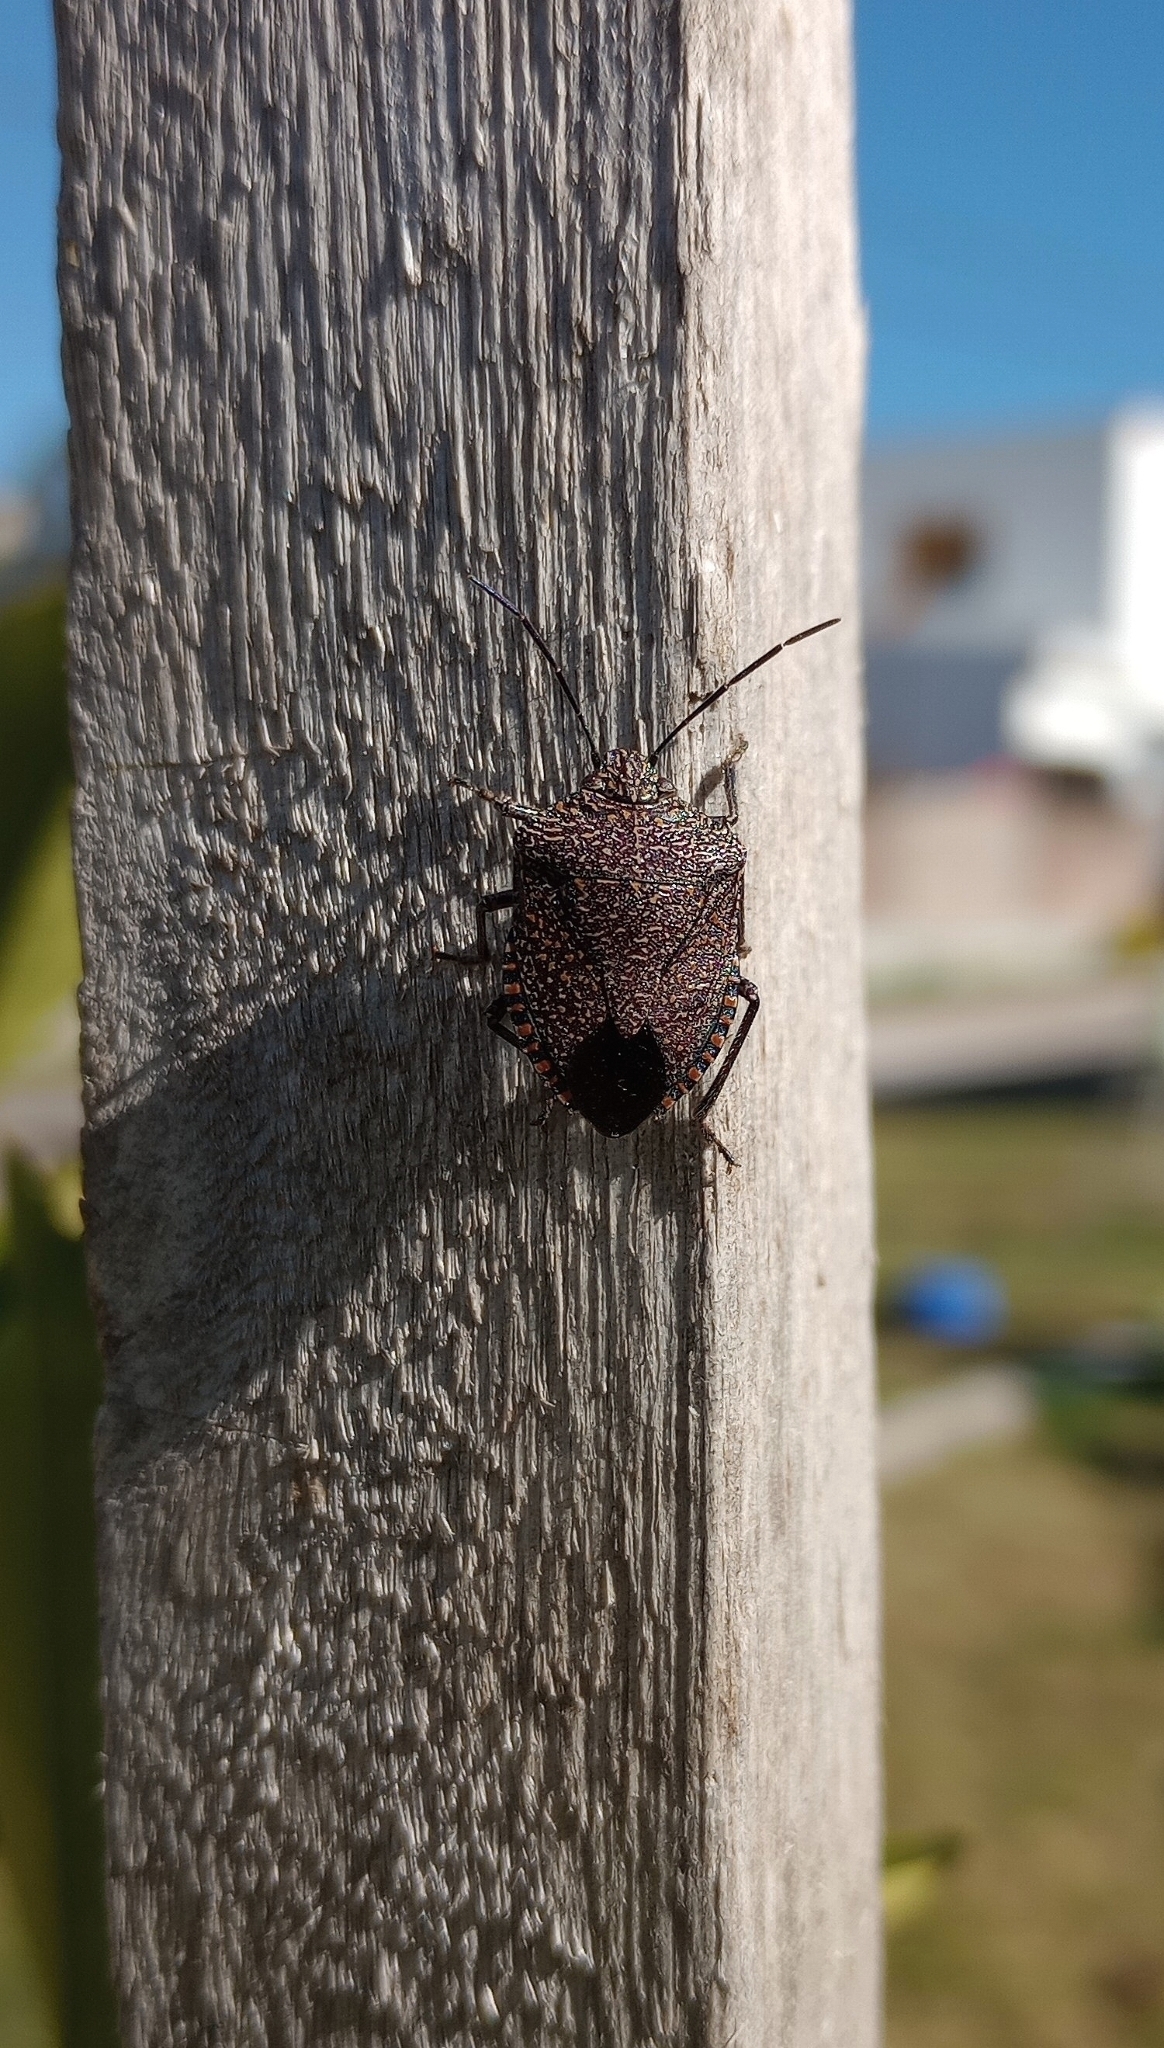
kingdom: Animalia
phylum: Arthropoda
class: Insecta
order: Hemiptera
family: Pentatomidae
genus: Pellaea
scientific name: Pellaea stictica
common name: Stink bug
